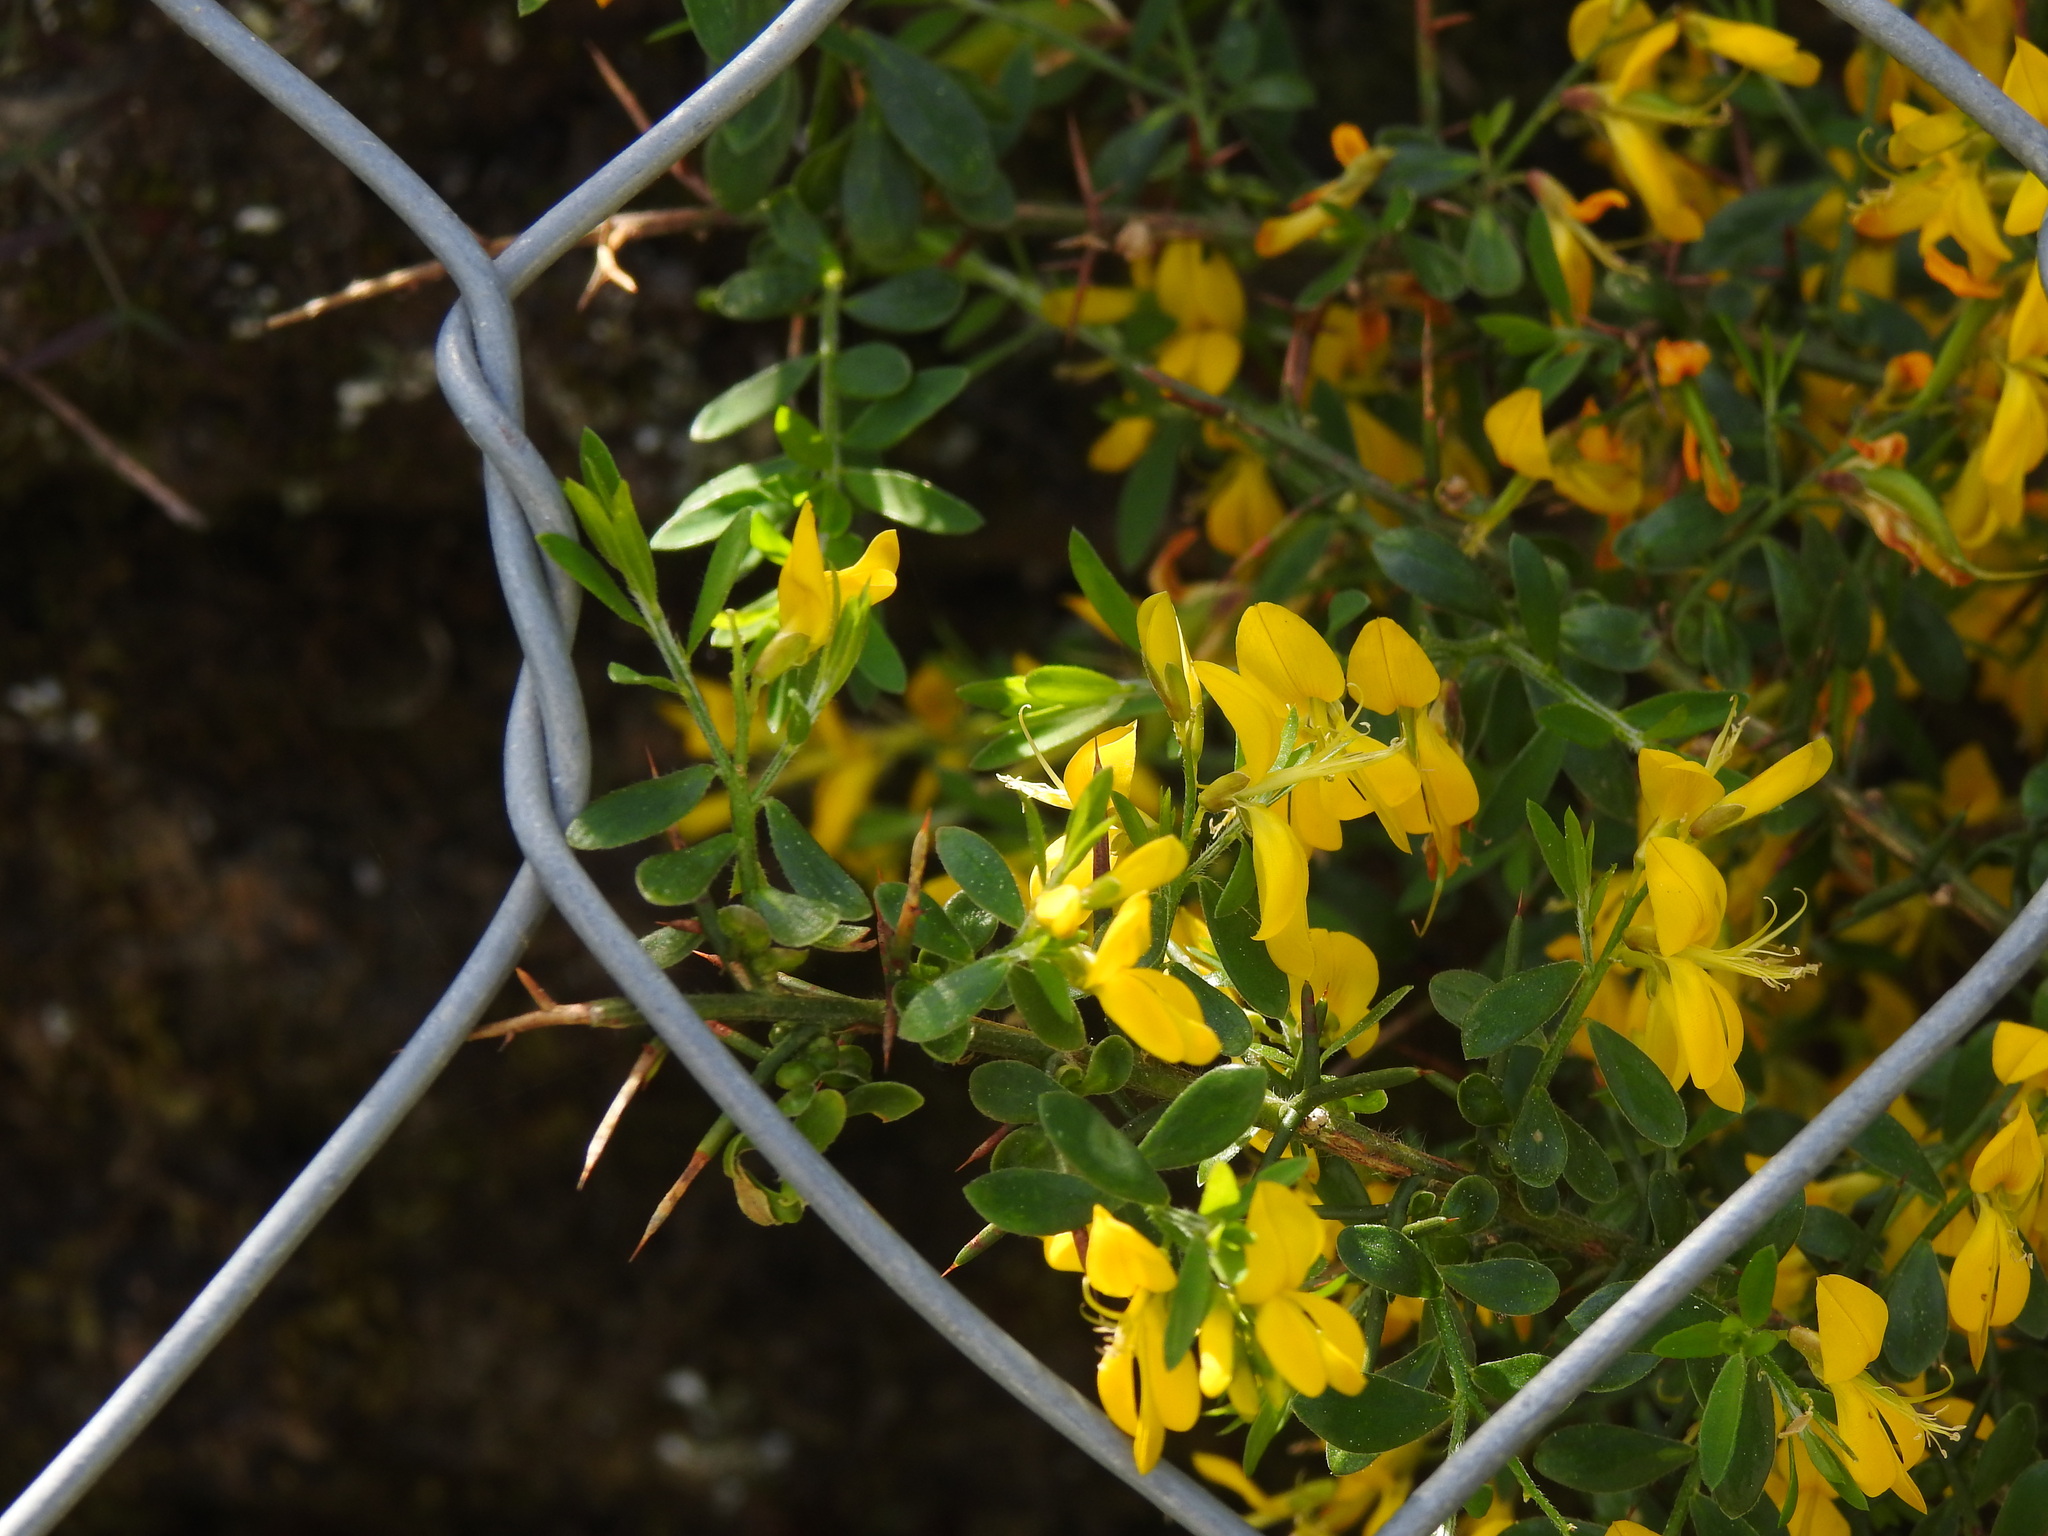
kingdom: Plantae
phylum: Tracheophyta
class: Magnoliopsida
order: Fabales
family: Fabaceae
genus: Genista
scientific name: Genista falcata
